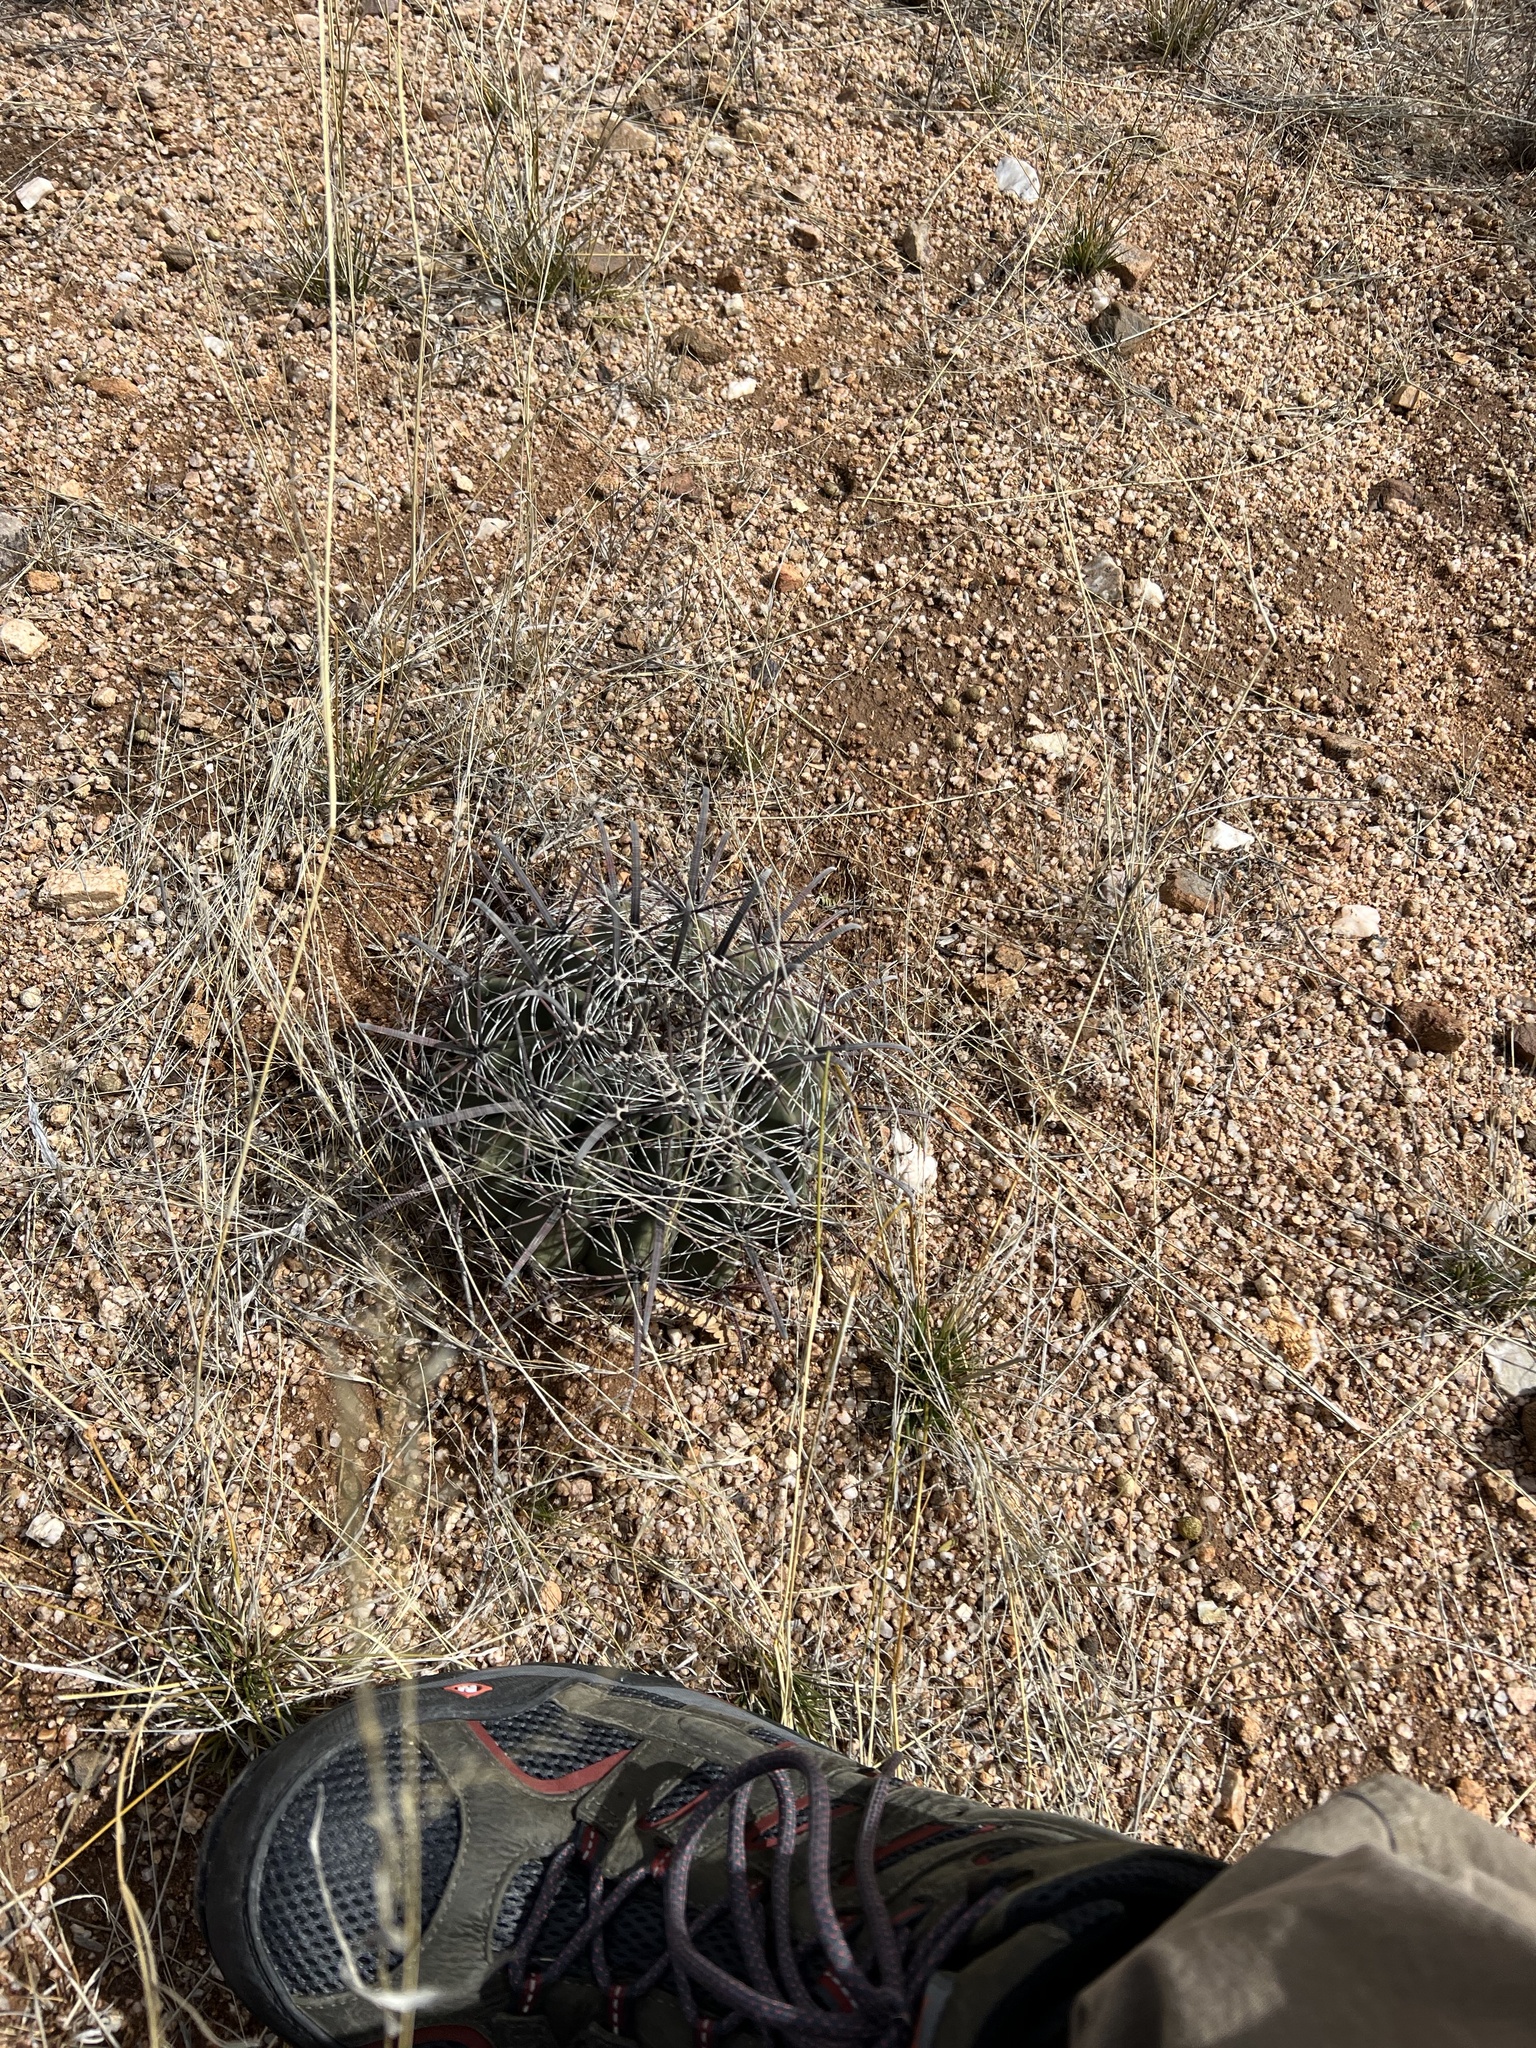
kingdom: Plantae
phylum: Tracheophyta
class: Magnoliopsida
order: Caryophyllales
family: Cactaceae
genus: Ferocactus
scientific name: Ferocactus wislizeni
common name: Candy barrel cactus
